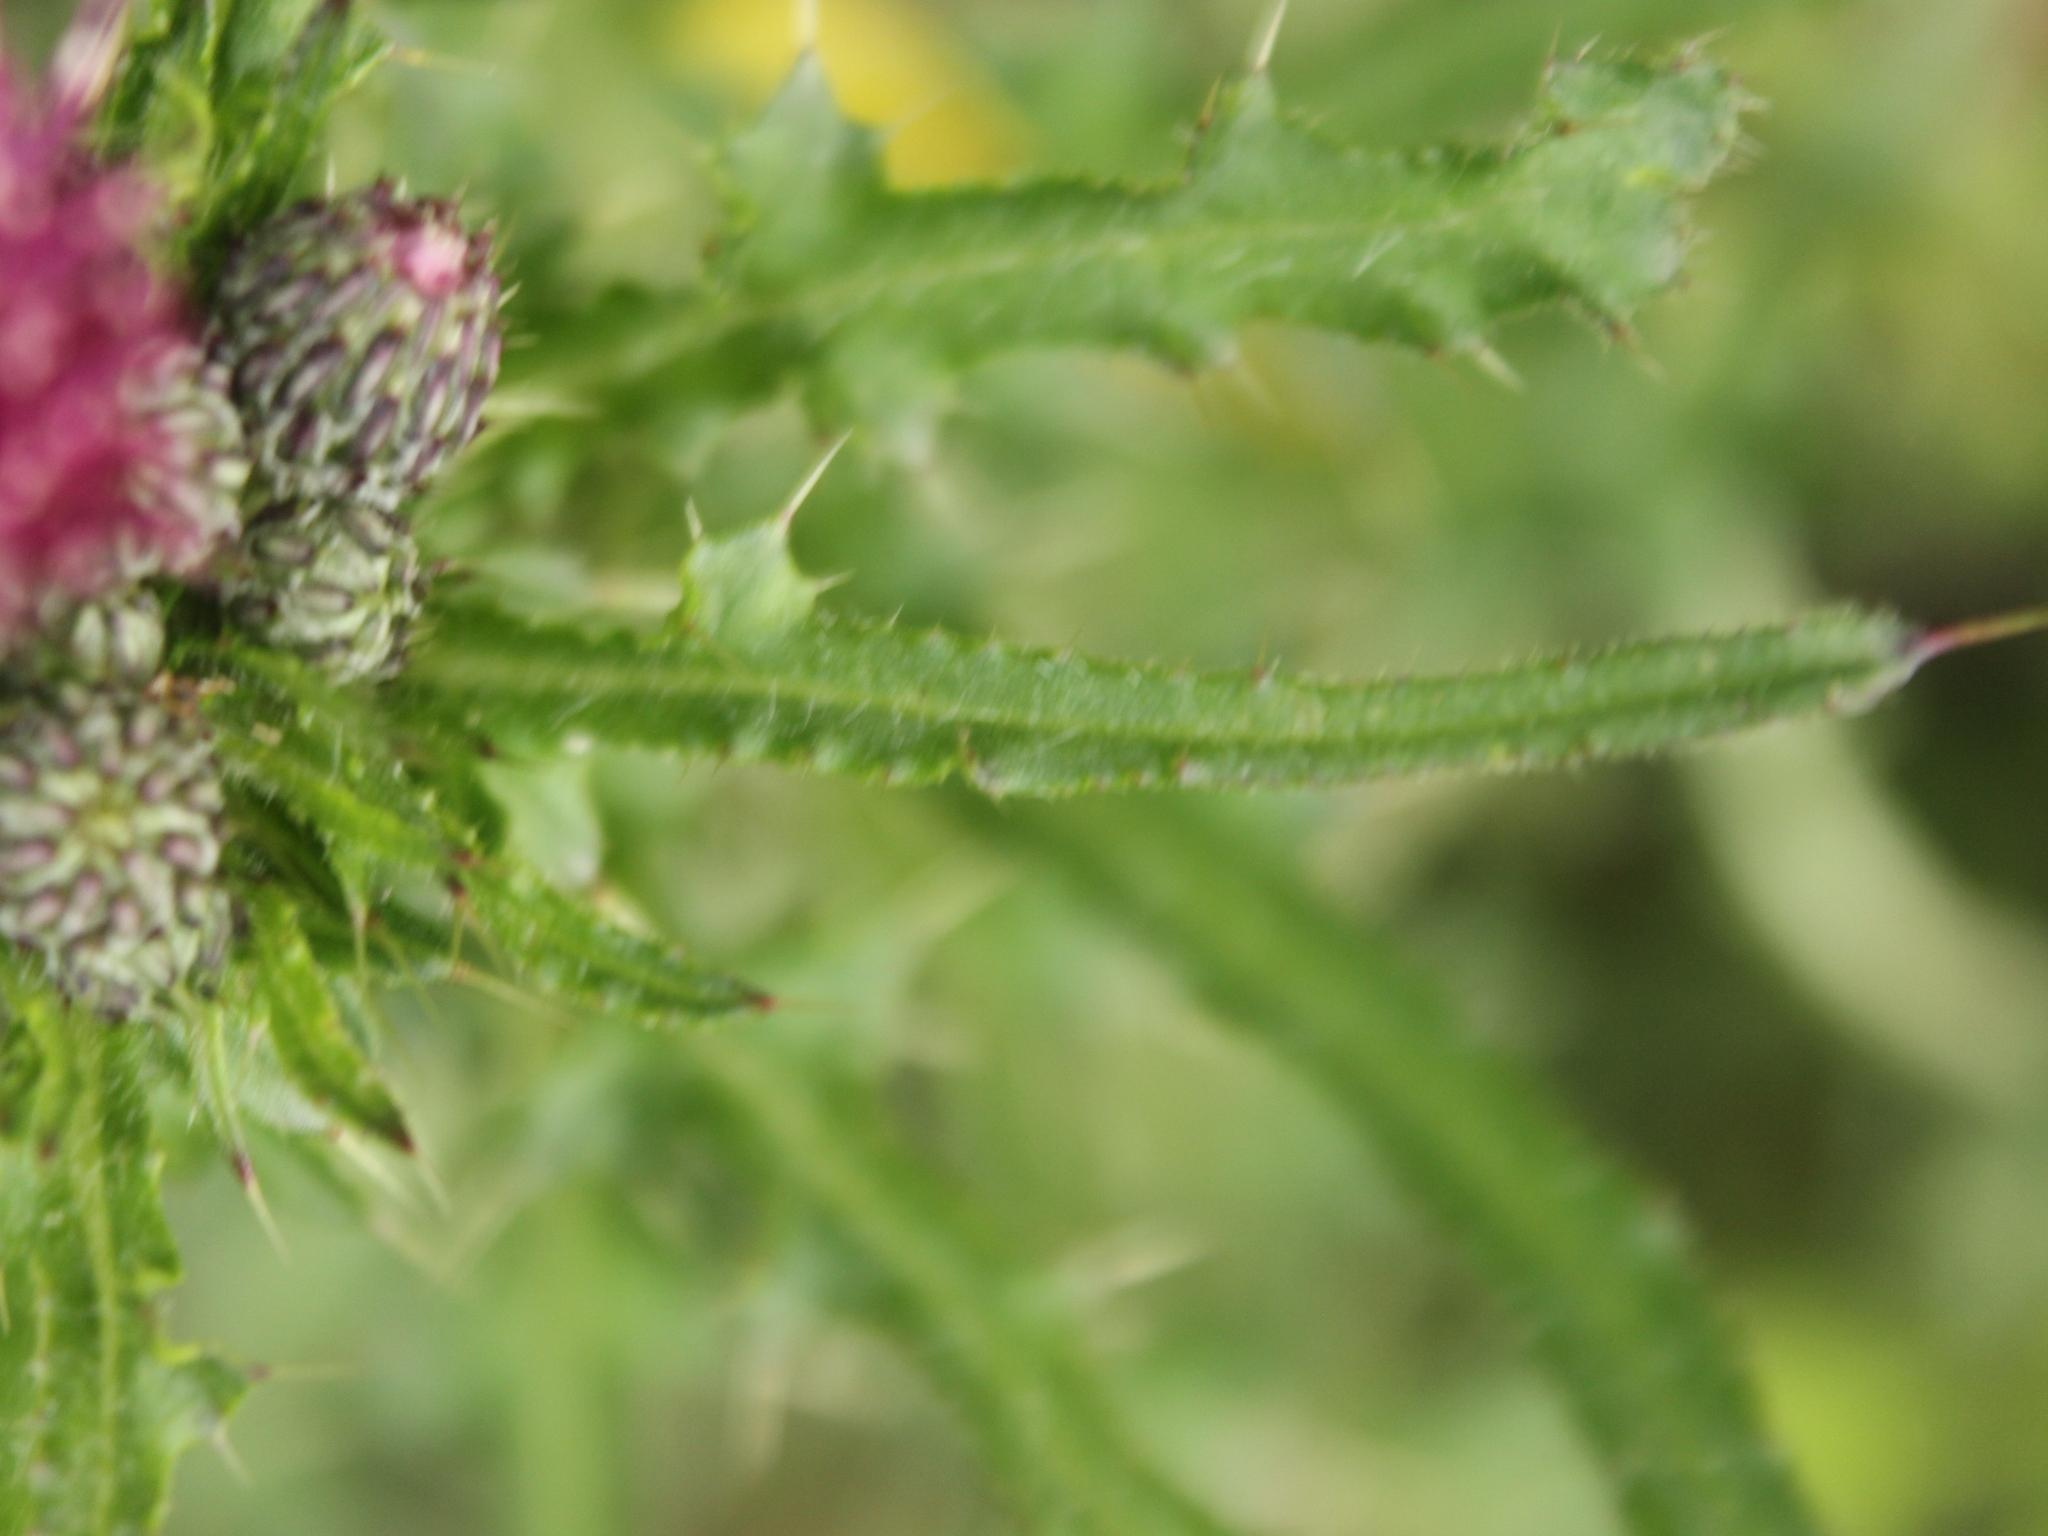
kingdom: Plantae
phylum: Tracheophyta
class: Magnoliopsida
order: Asterales
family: Asteraceae
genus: Cirsium
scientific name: Cirsium palustre
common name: Marsh thistle
